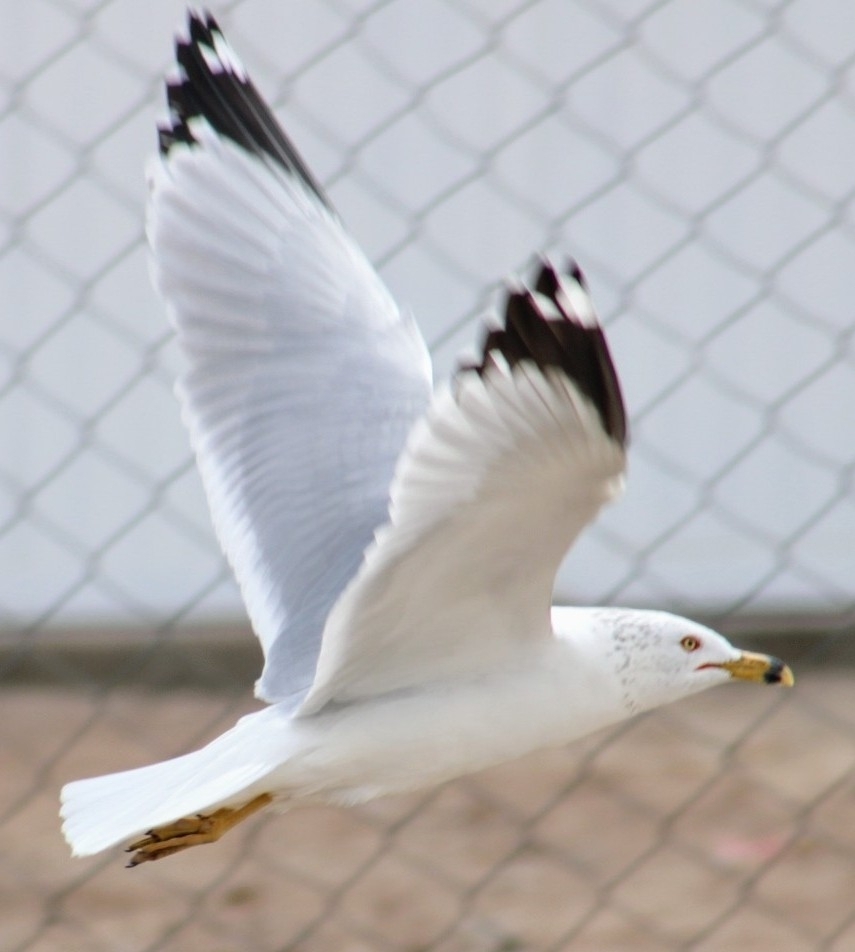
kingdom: Animalia
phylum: Chordata
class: Aves
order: Charadriiformes
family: Laridae
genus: Larus
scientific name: Larus delawarensis
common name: Ring-billed gull
